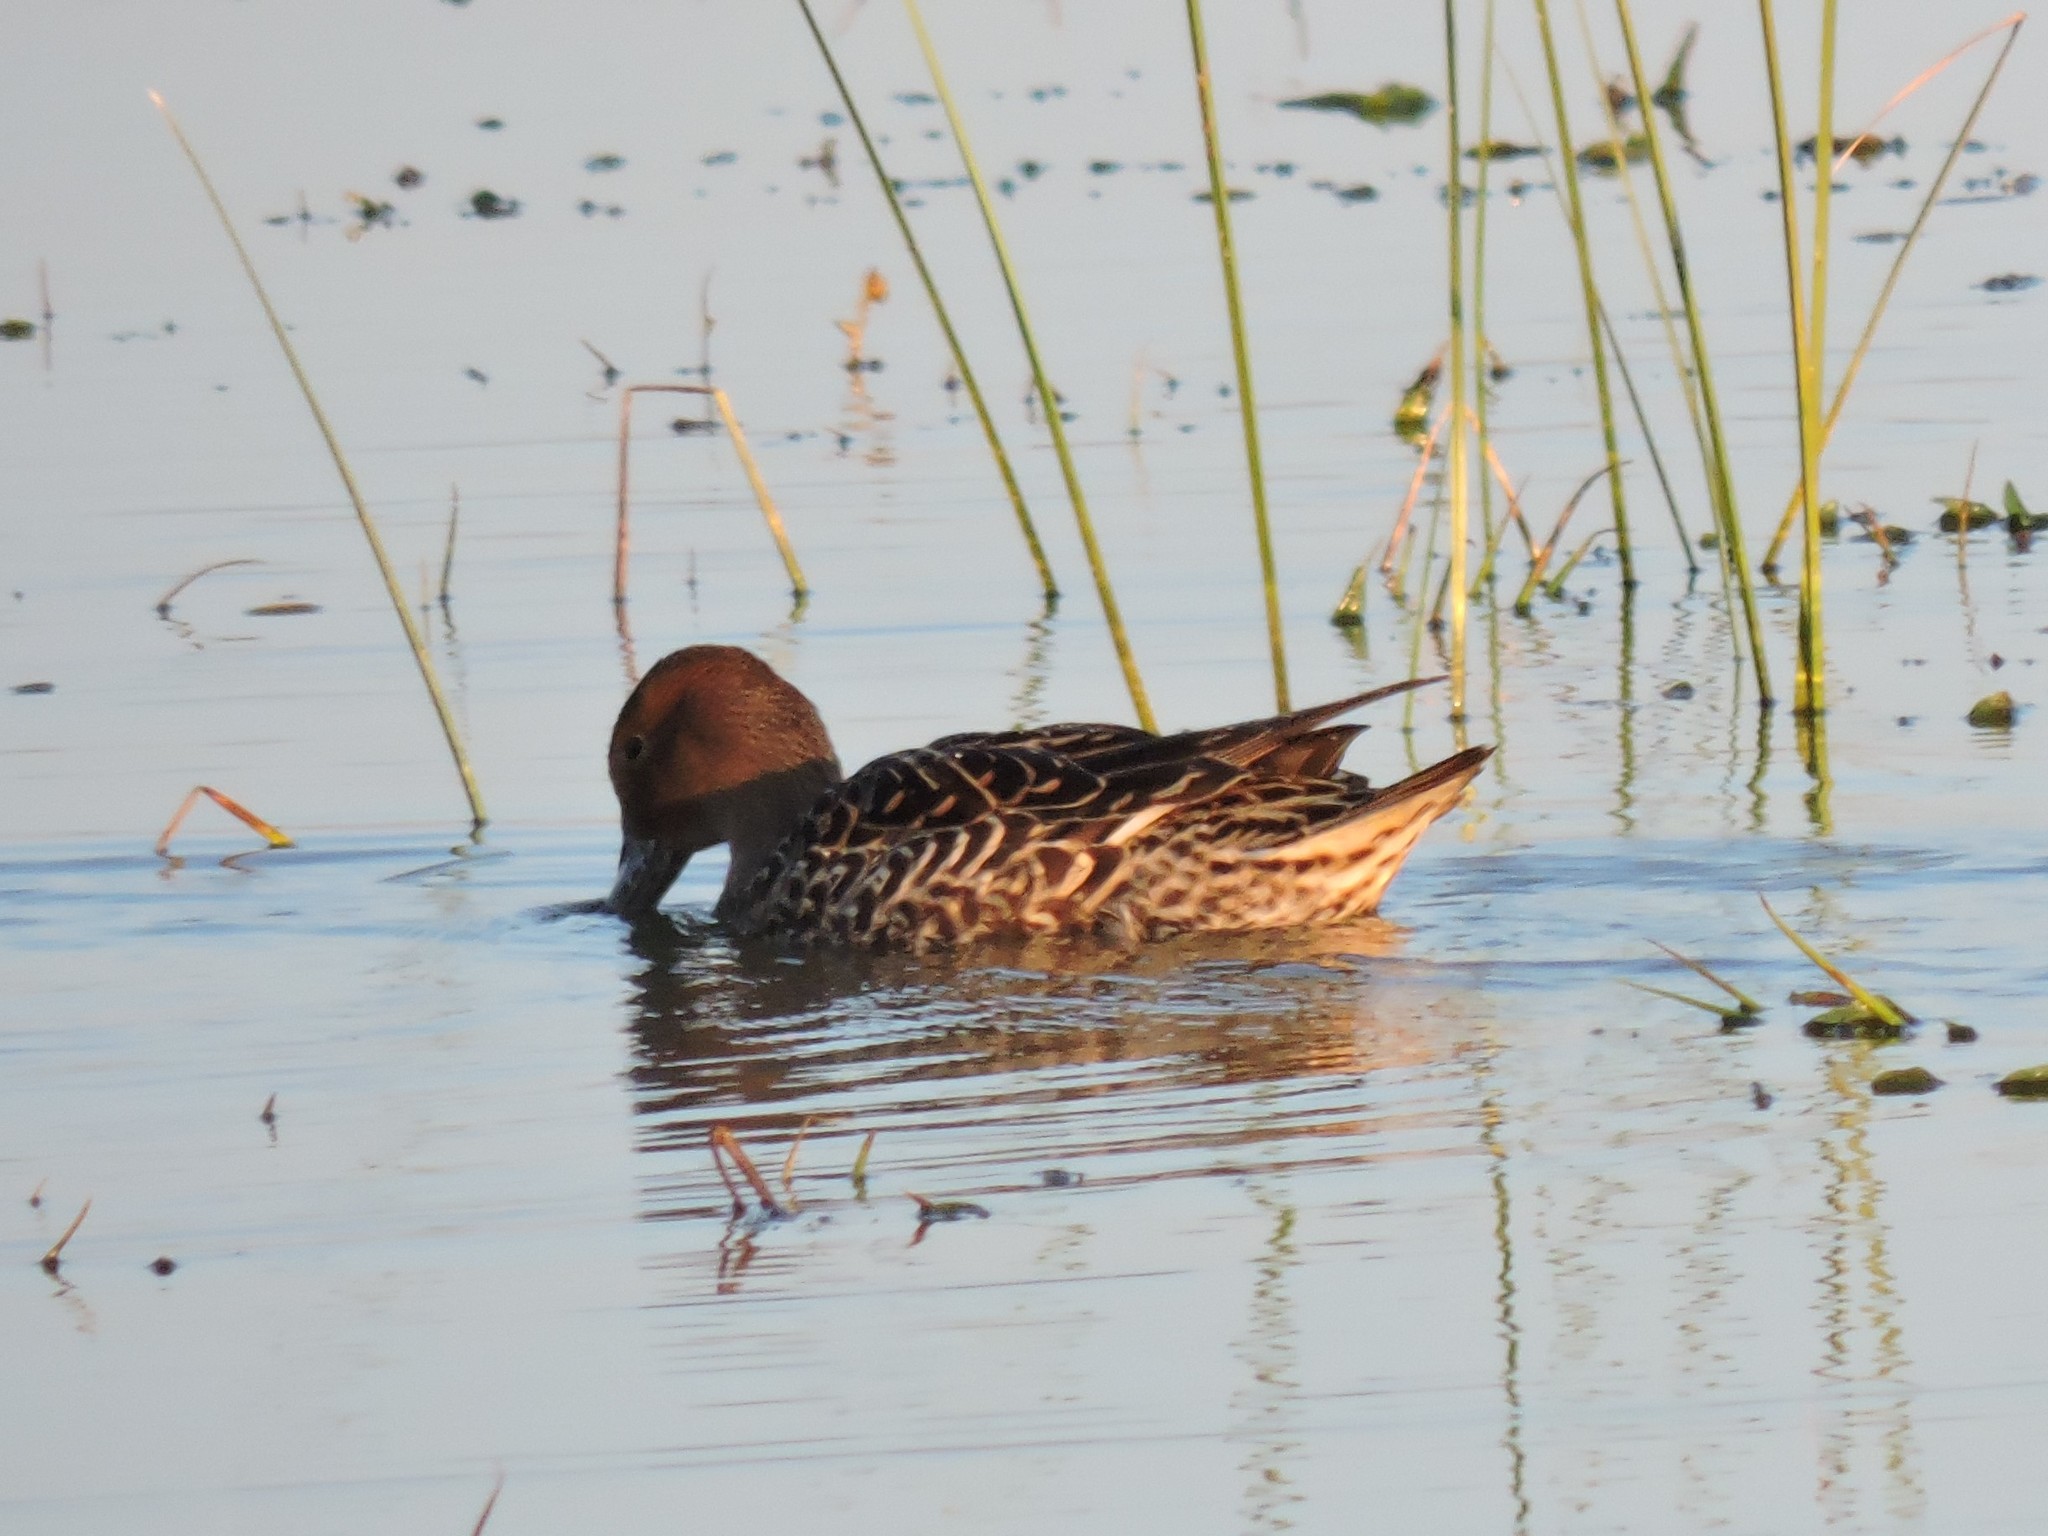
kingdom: Animalia
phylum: Chordata
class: Aves
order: Anseriformes
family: Anatidae
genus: Anas
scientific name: Anas acuta
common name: Northern pintail
